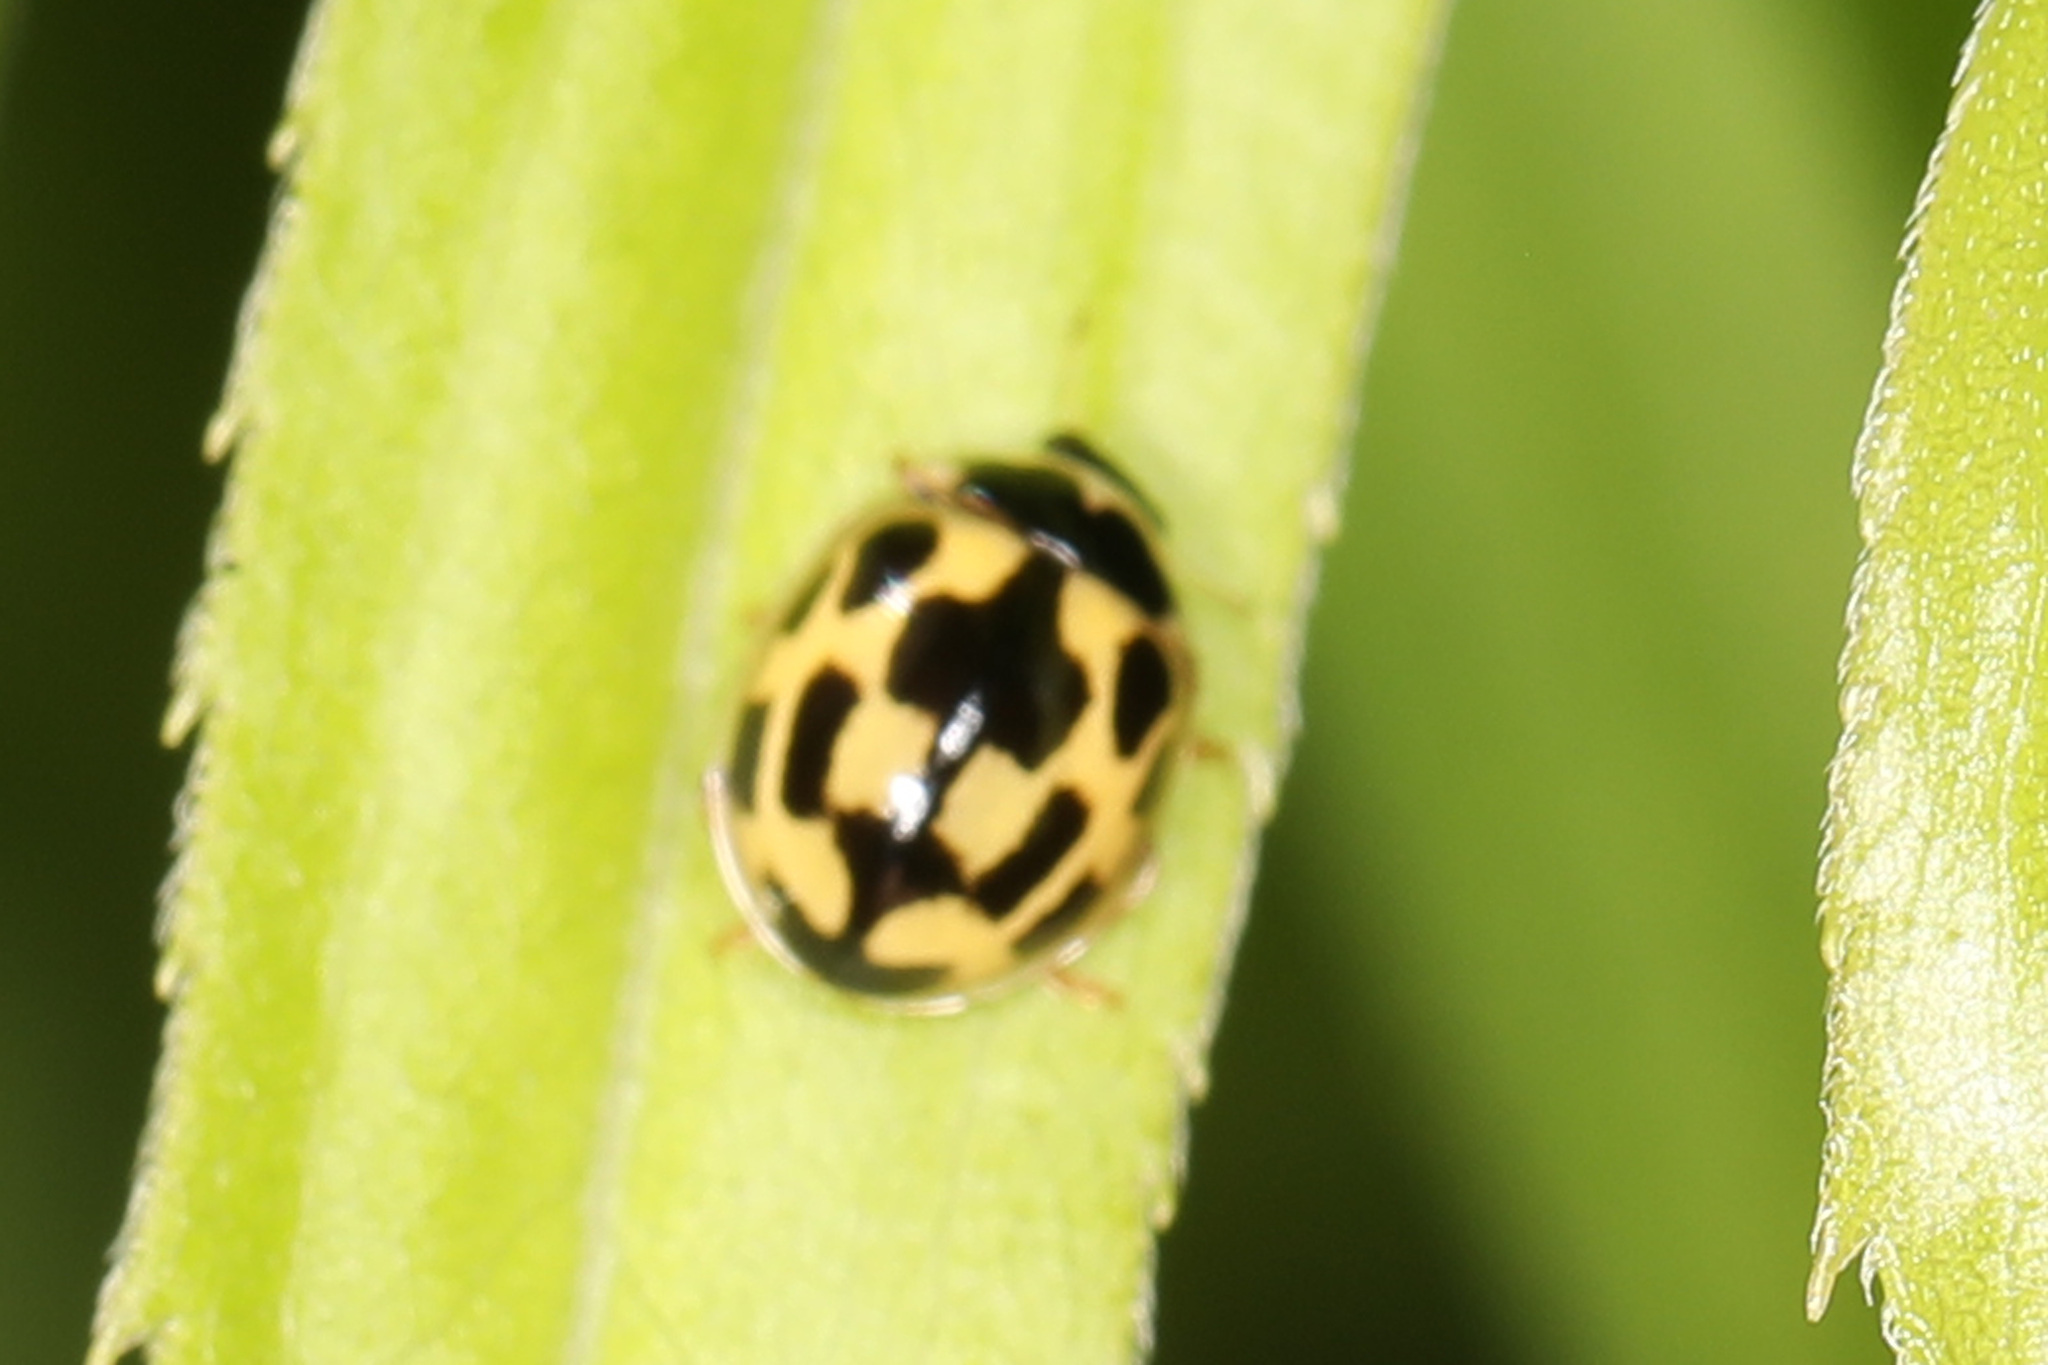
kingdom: Animalia
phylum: Arthropoda
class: Insecta
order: Coleoptera
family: Coccinellidae
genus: Propylaea
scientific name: Propylaea quatuordecimpunctata
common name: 14-spotted ladybird beetle
